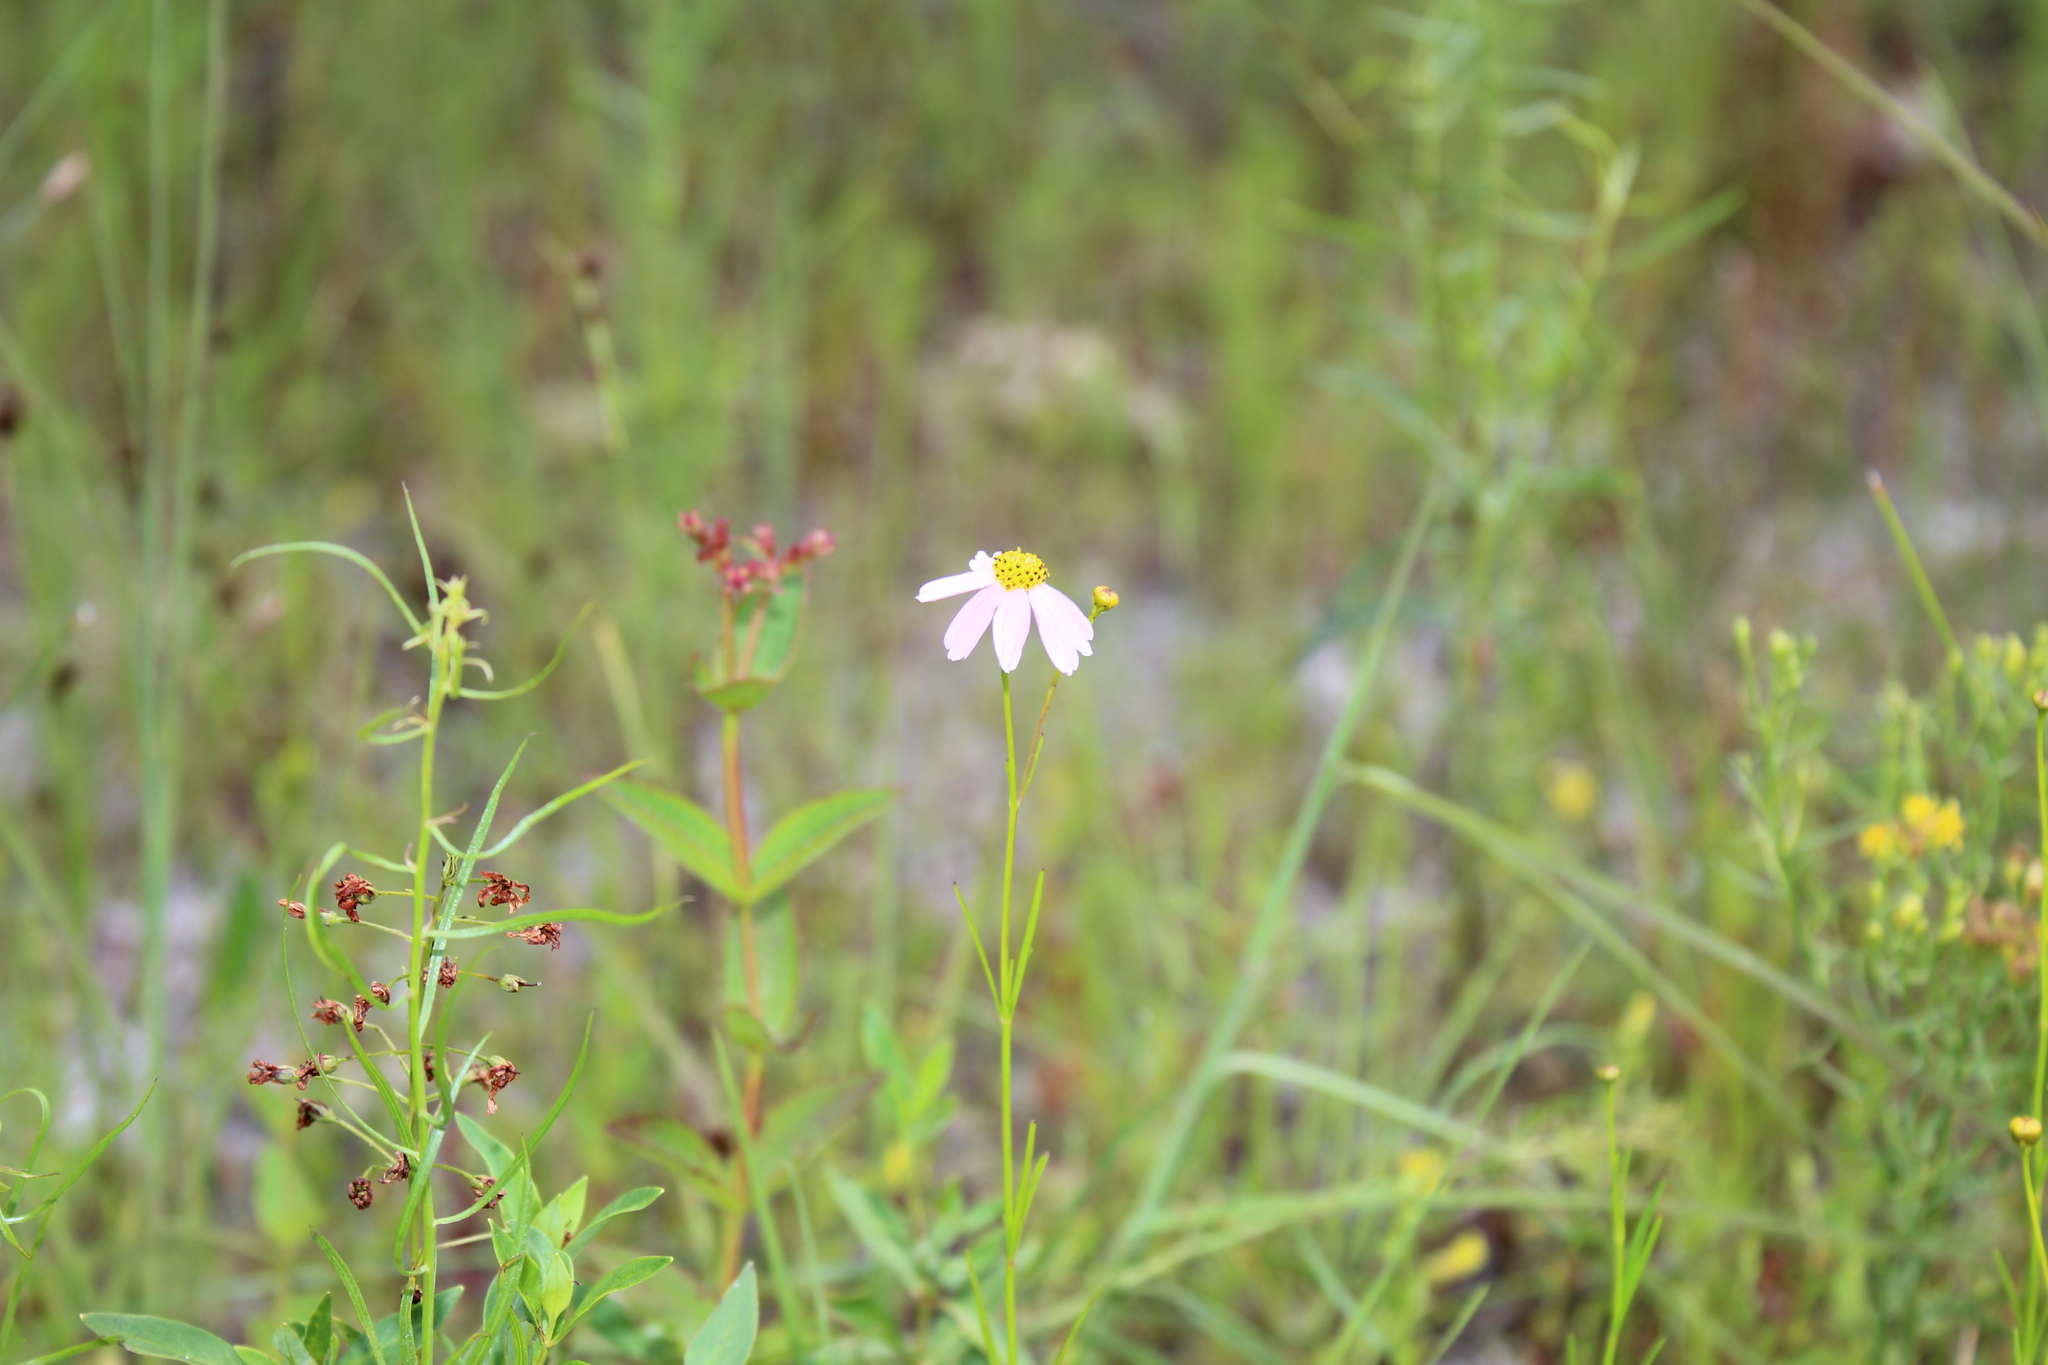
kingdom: Plantae
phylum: Tracheophyta
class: Magnoliopsida
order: Asterales
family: Asteraceae
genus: Coreopsis
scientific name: Coreopsis rosea
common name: Pink coreopsis
